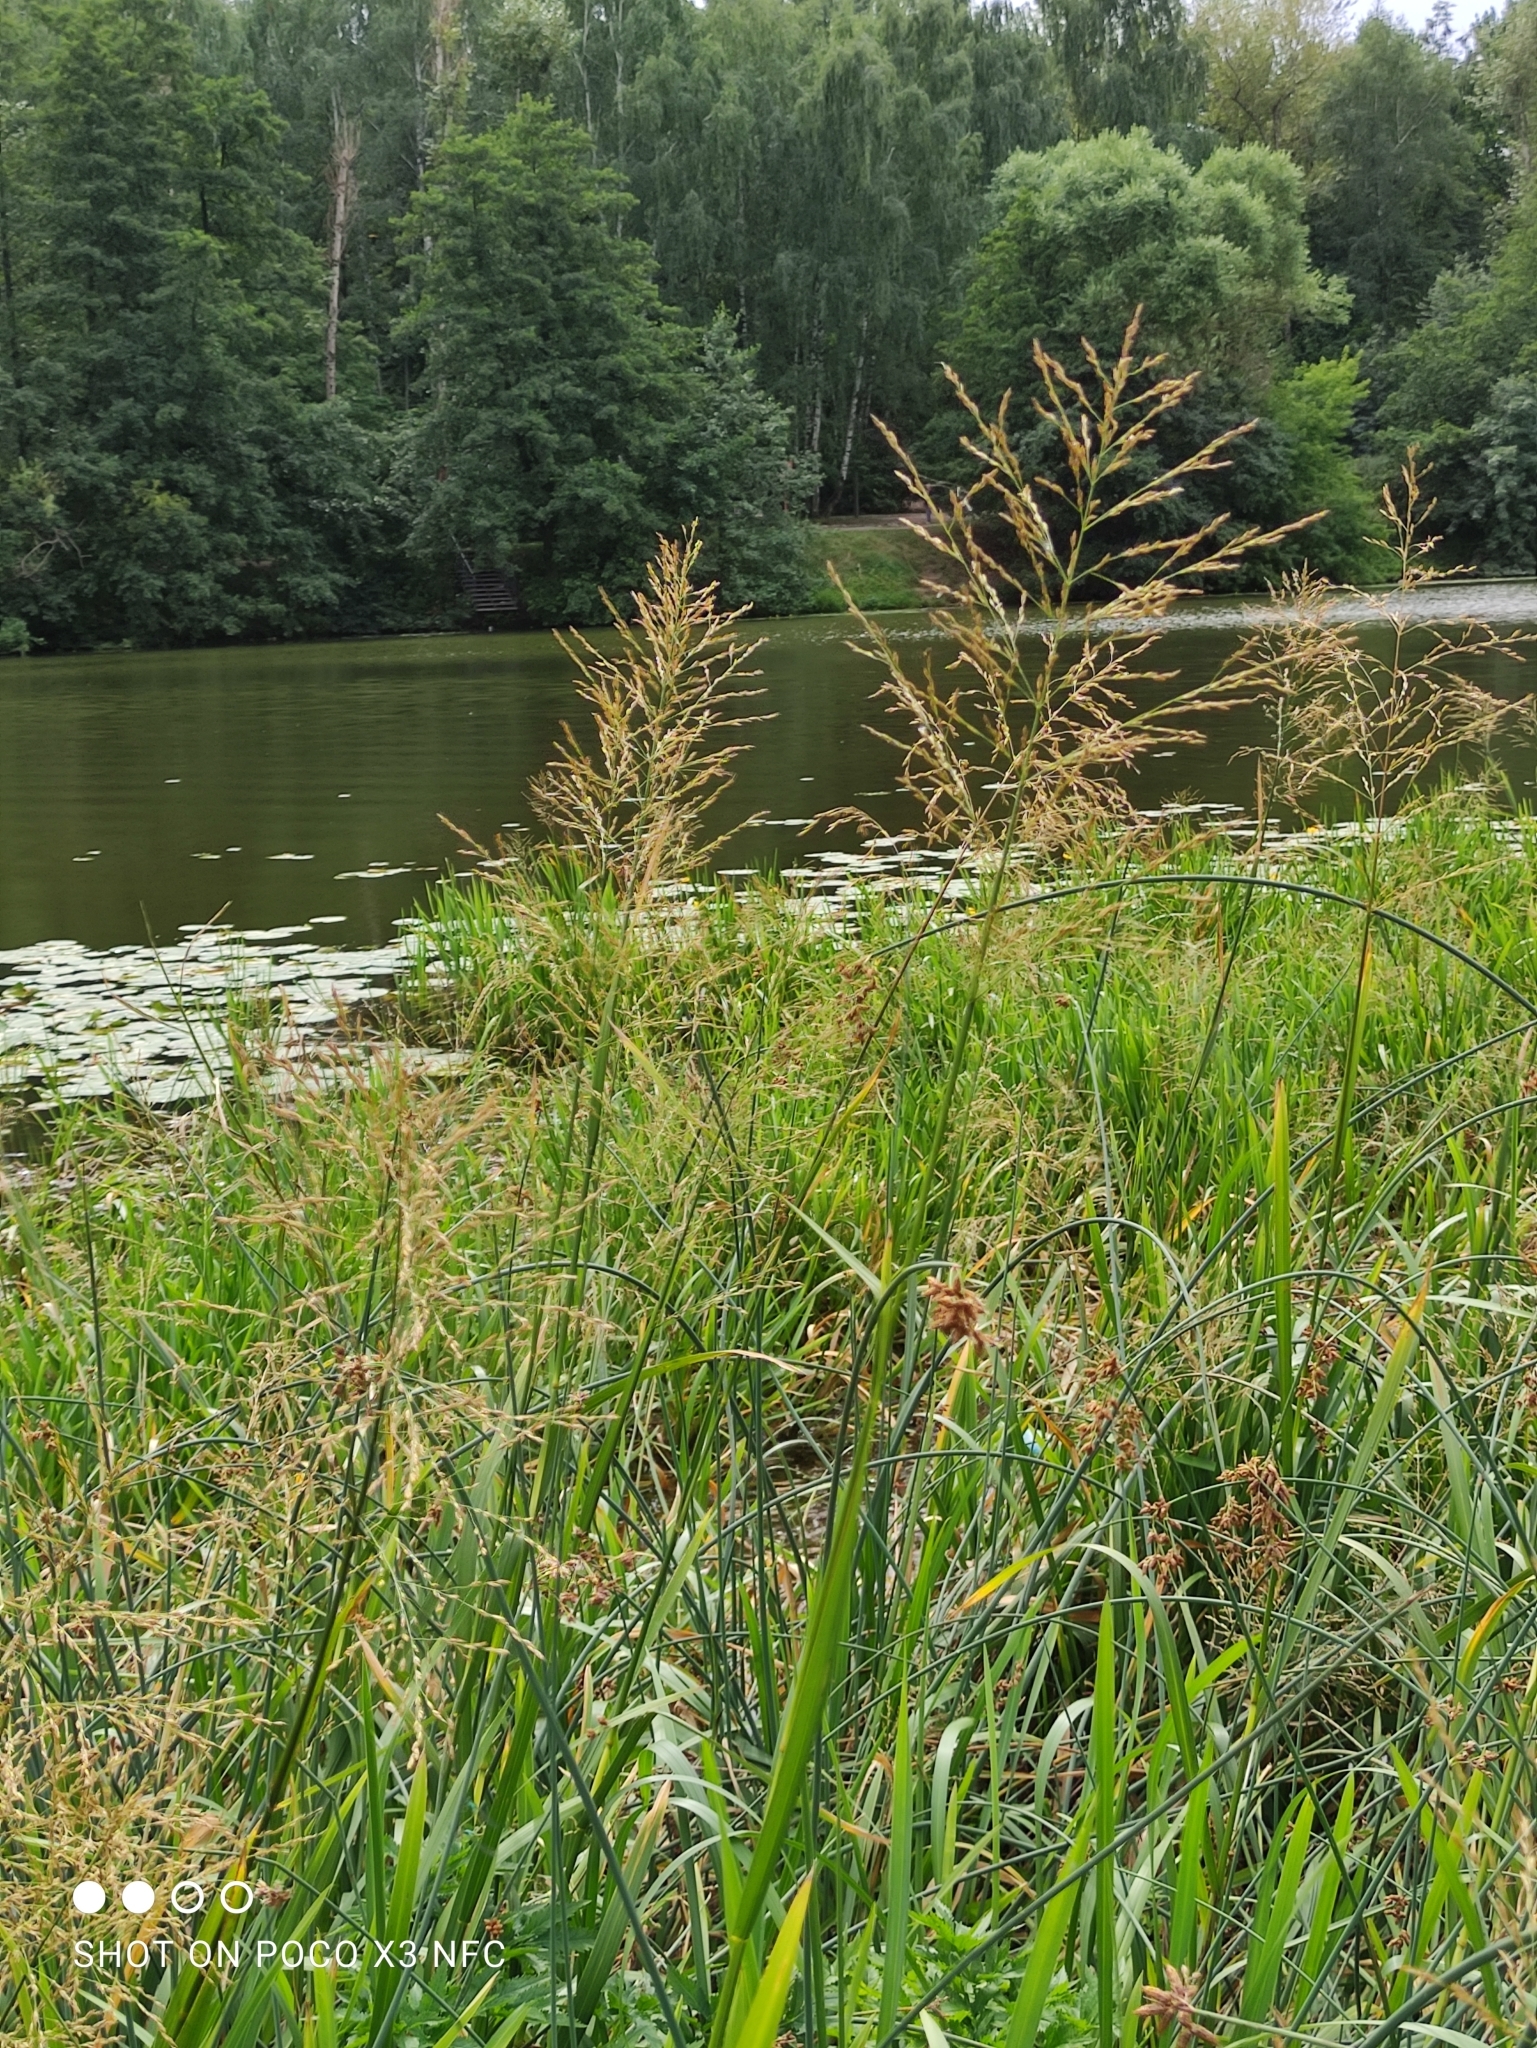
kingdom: Plantae
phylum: Tracheophyta
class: Liliopsida
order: Poales
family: Poaceae
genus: Glyceria
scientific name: Glyceria maxima
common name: Reed mannagrass
